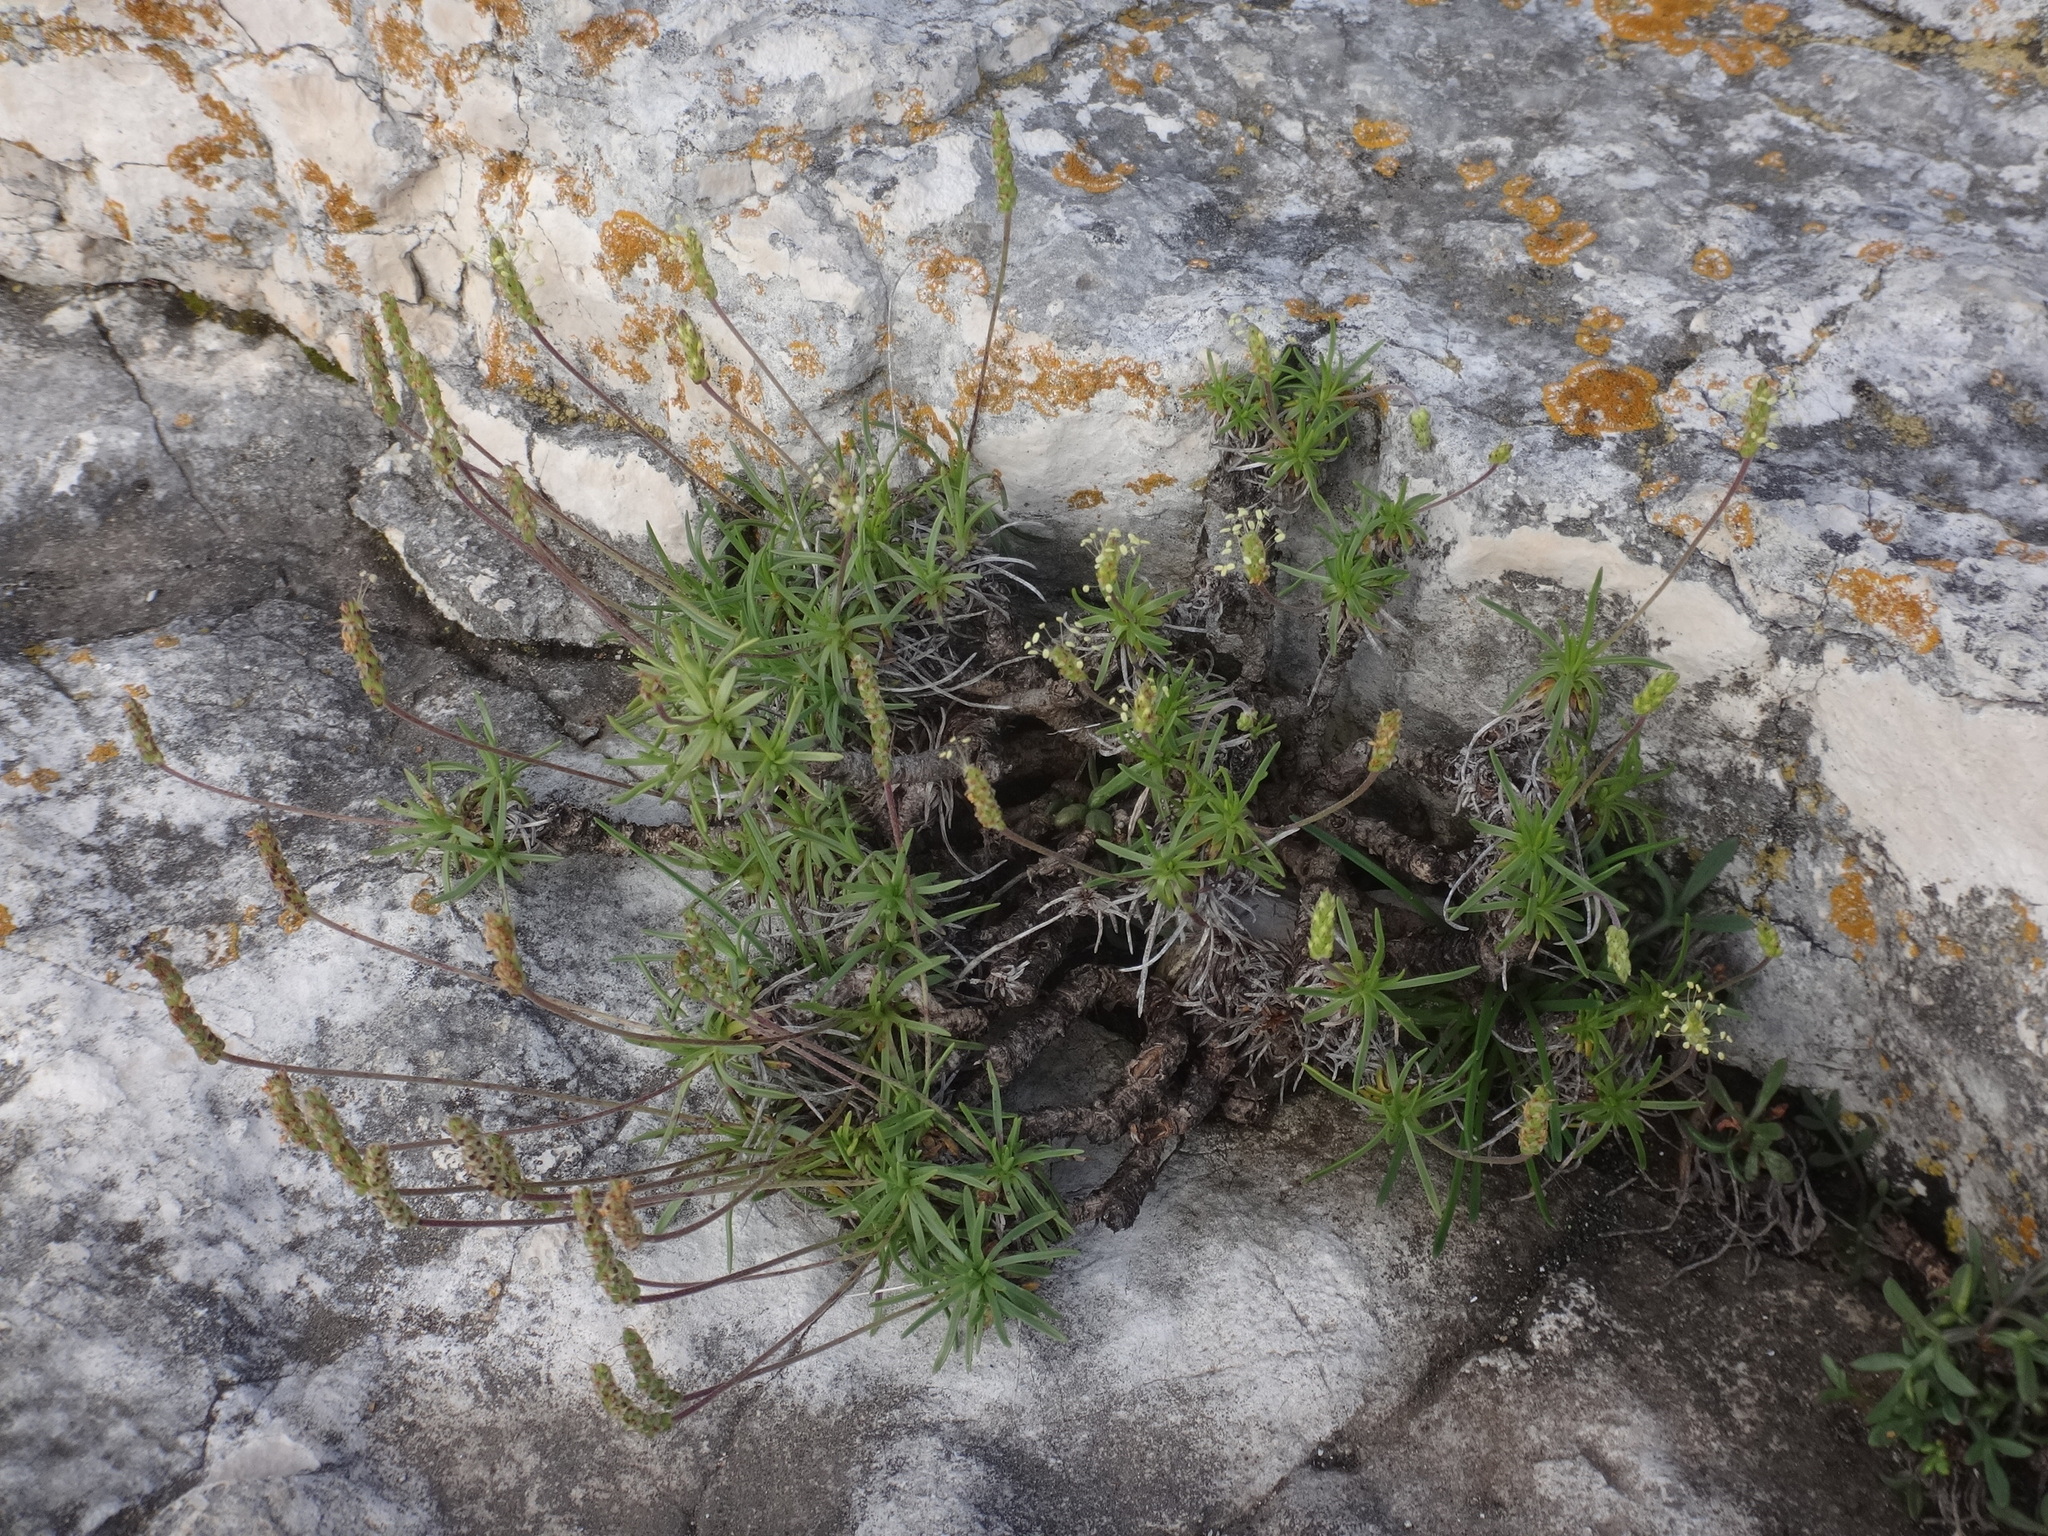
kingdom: Plantae
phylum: Tracheophyta
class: Magnoliopsida
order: Lamiales
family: Plantaginaceae
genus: Plantago
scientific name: Plantago subulata
